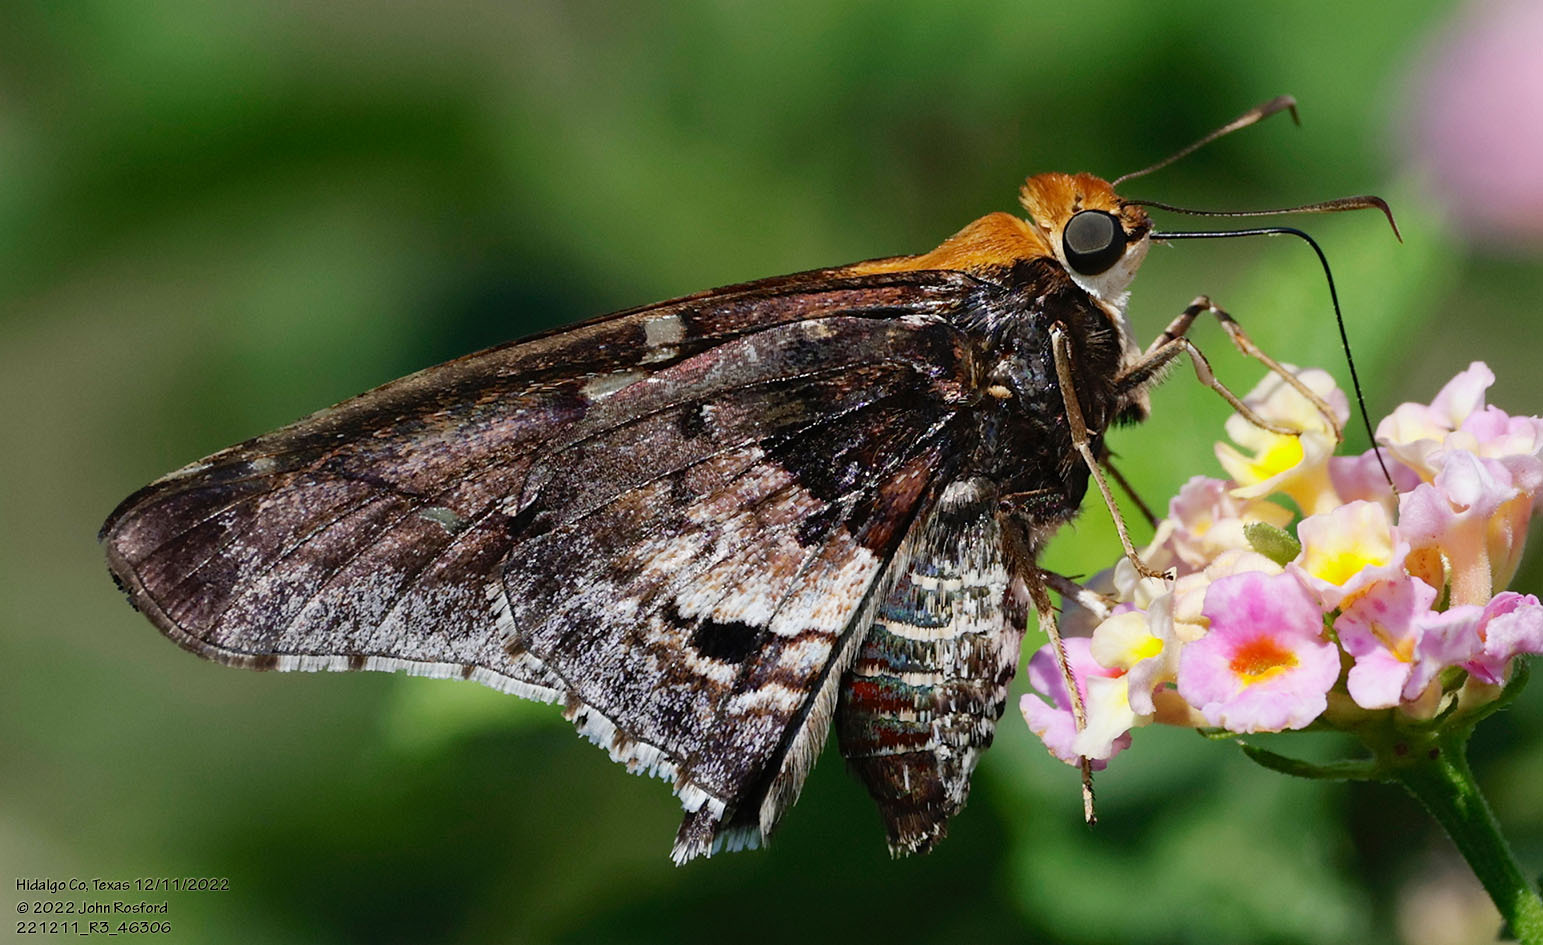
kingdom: Animalia
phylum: Arthropoda
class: Insecta
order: Lepidoptera
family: Hesperiidae
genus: Proteides
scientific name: Proteides mercurius
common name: Mercurial skipper
